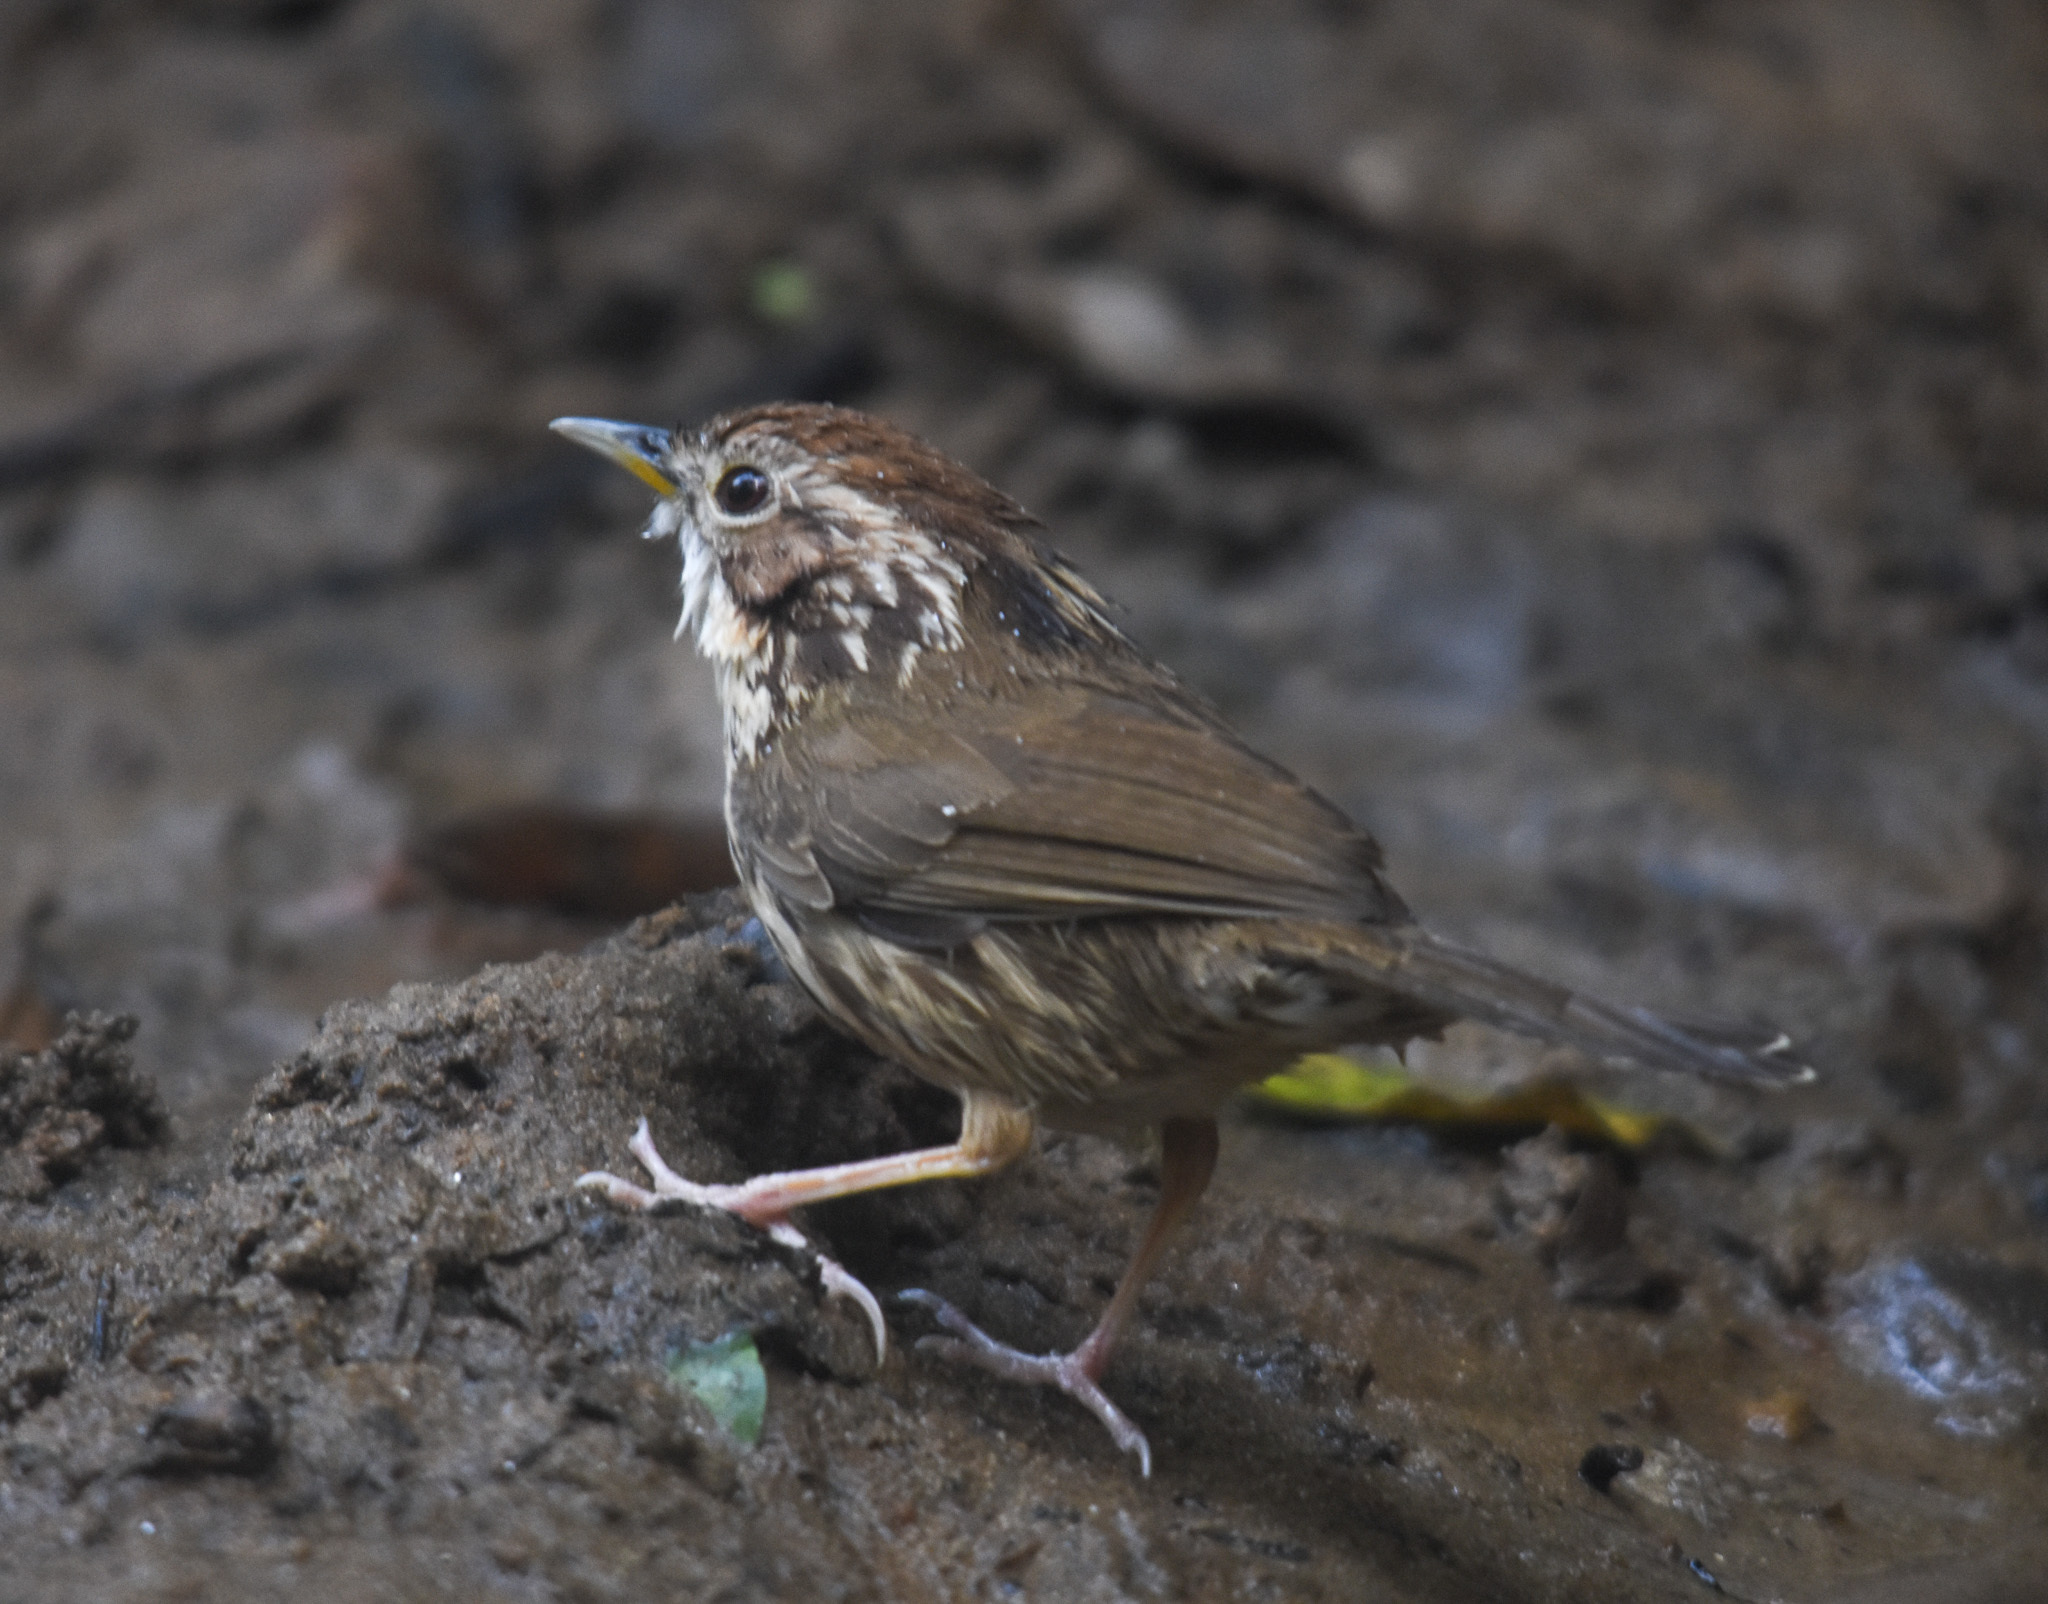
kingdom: Animalia
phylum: Chordata
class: Aves
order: Passeriformes
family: Pellorneidae
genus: Pellorneum
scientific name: Pellorneum ruficeps
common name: Puff-throated babbler
